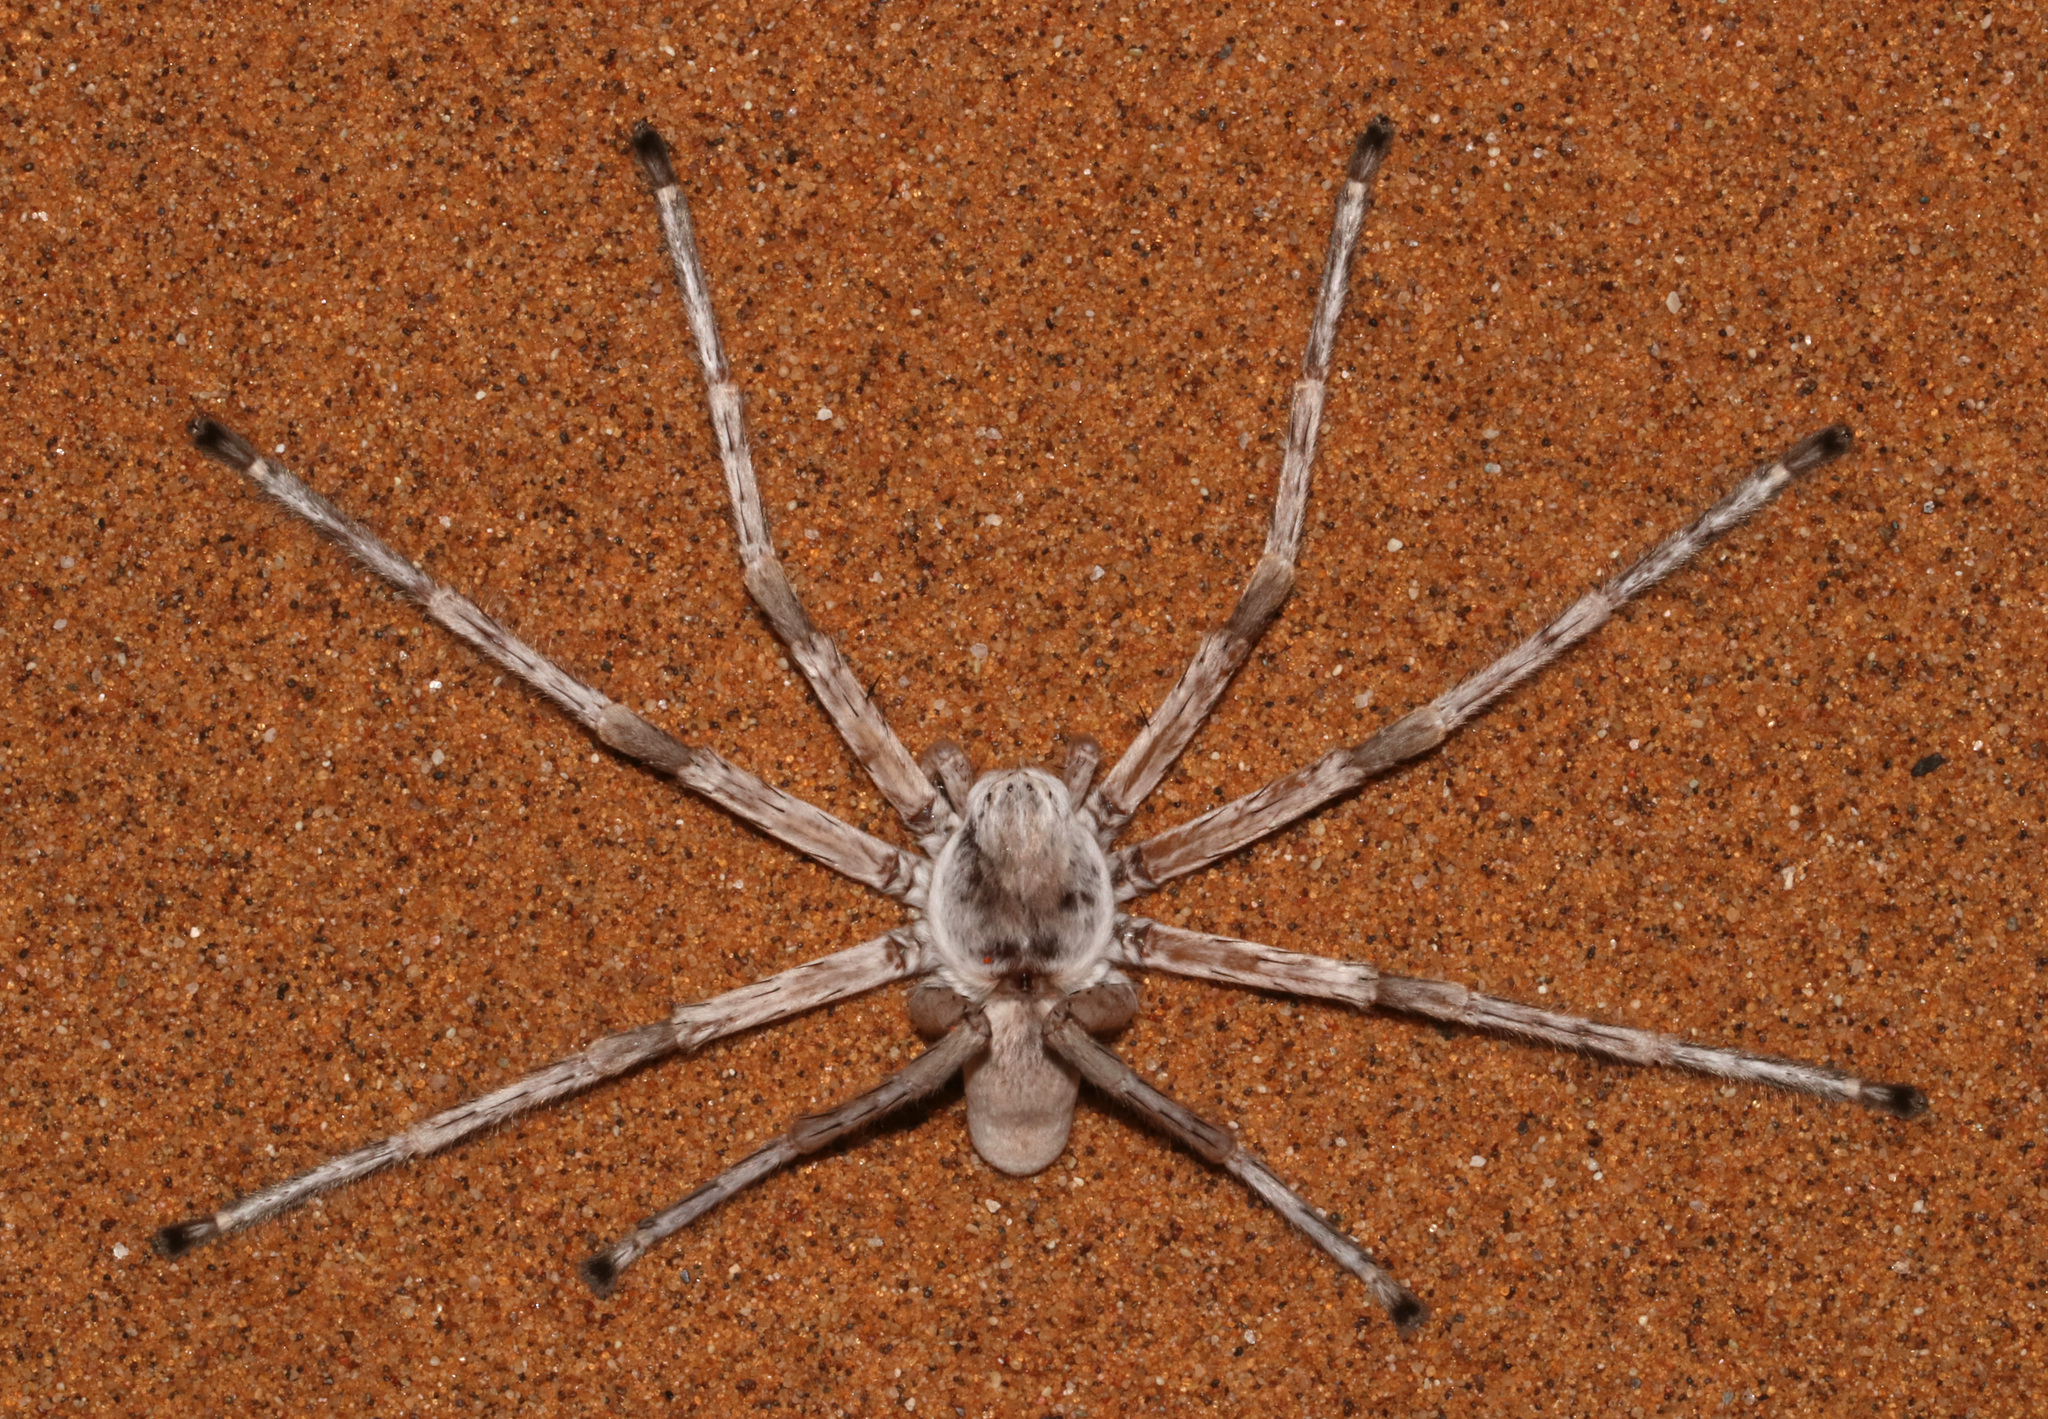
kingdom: Animalia
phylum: Arthropoda
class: Arachnida
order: Araneae
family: Sparassidae
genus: Leucorchestris
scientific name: Leucorchestris arenicola
